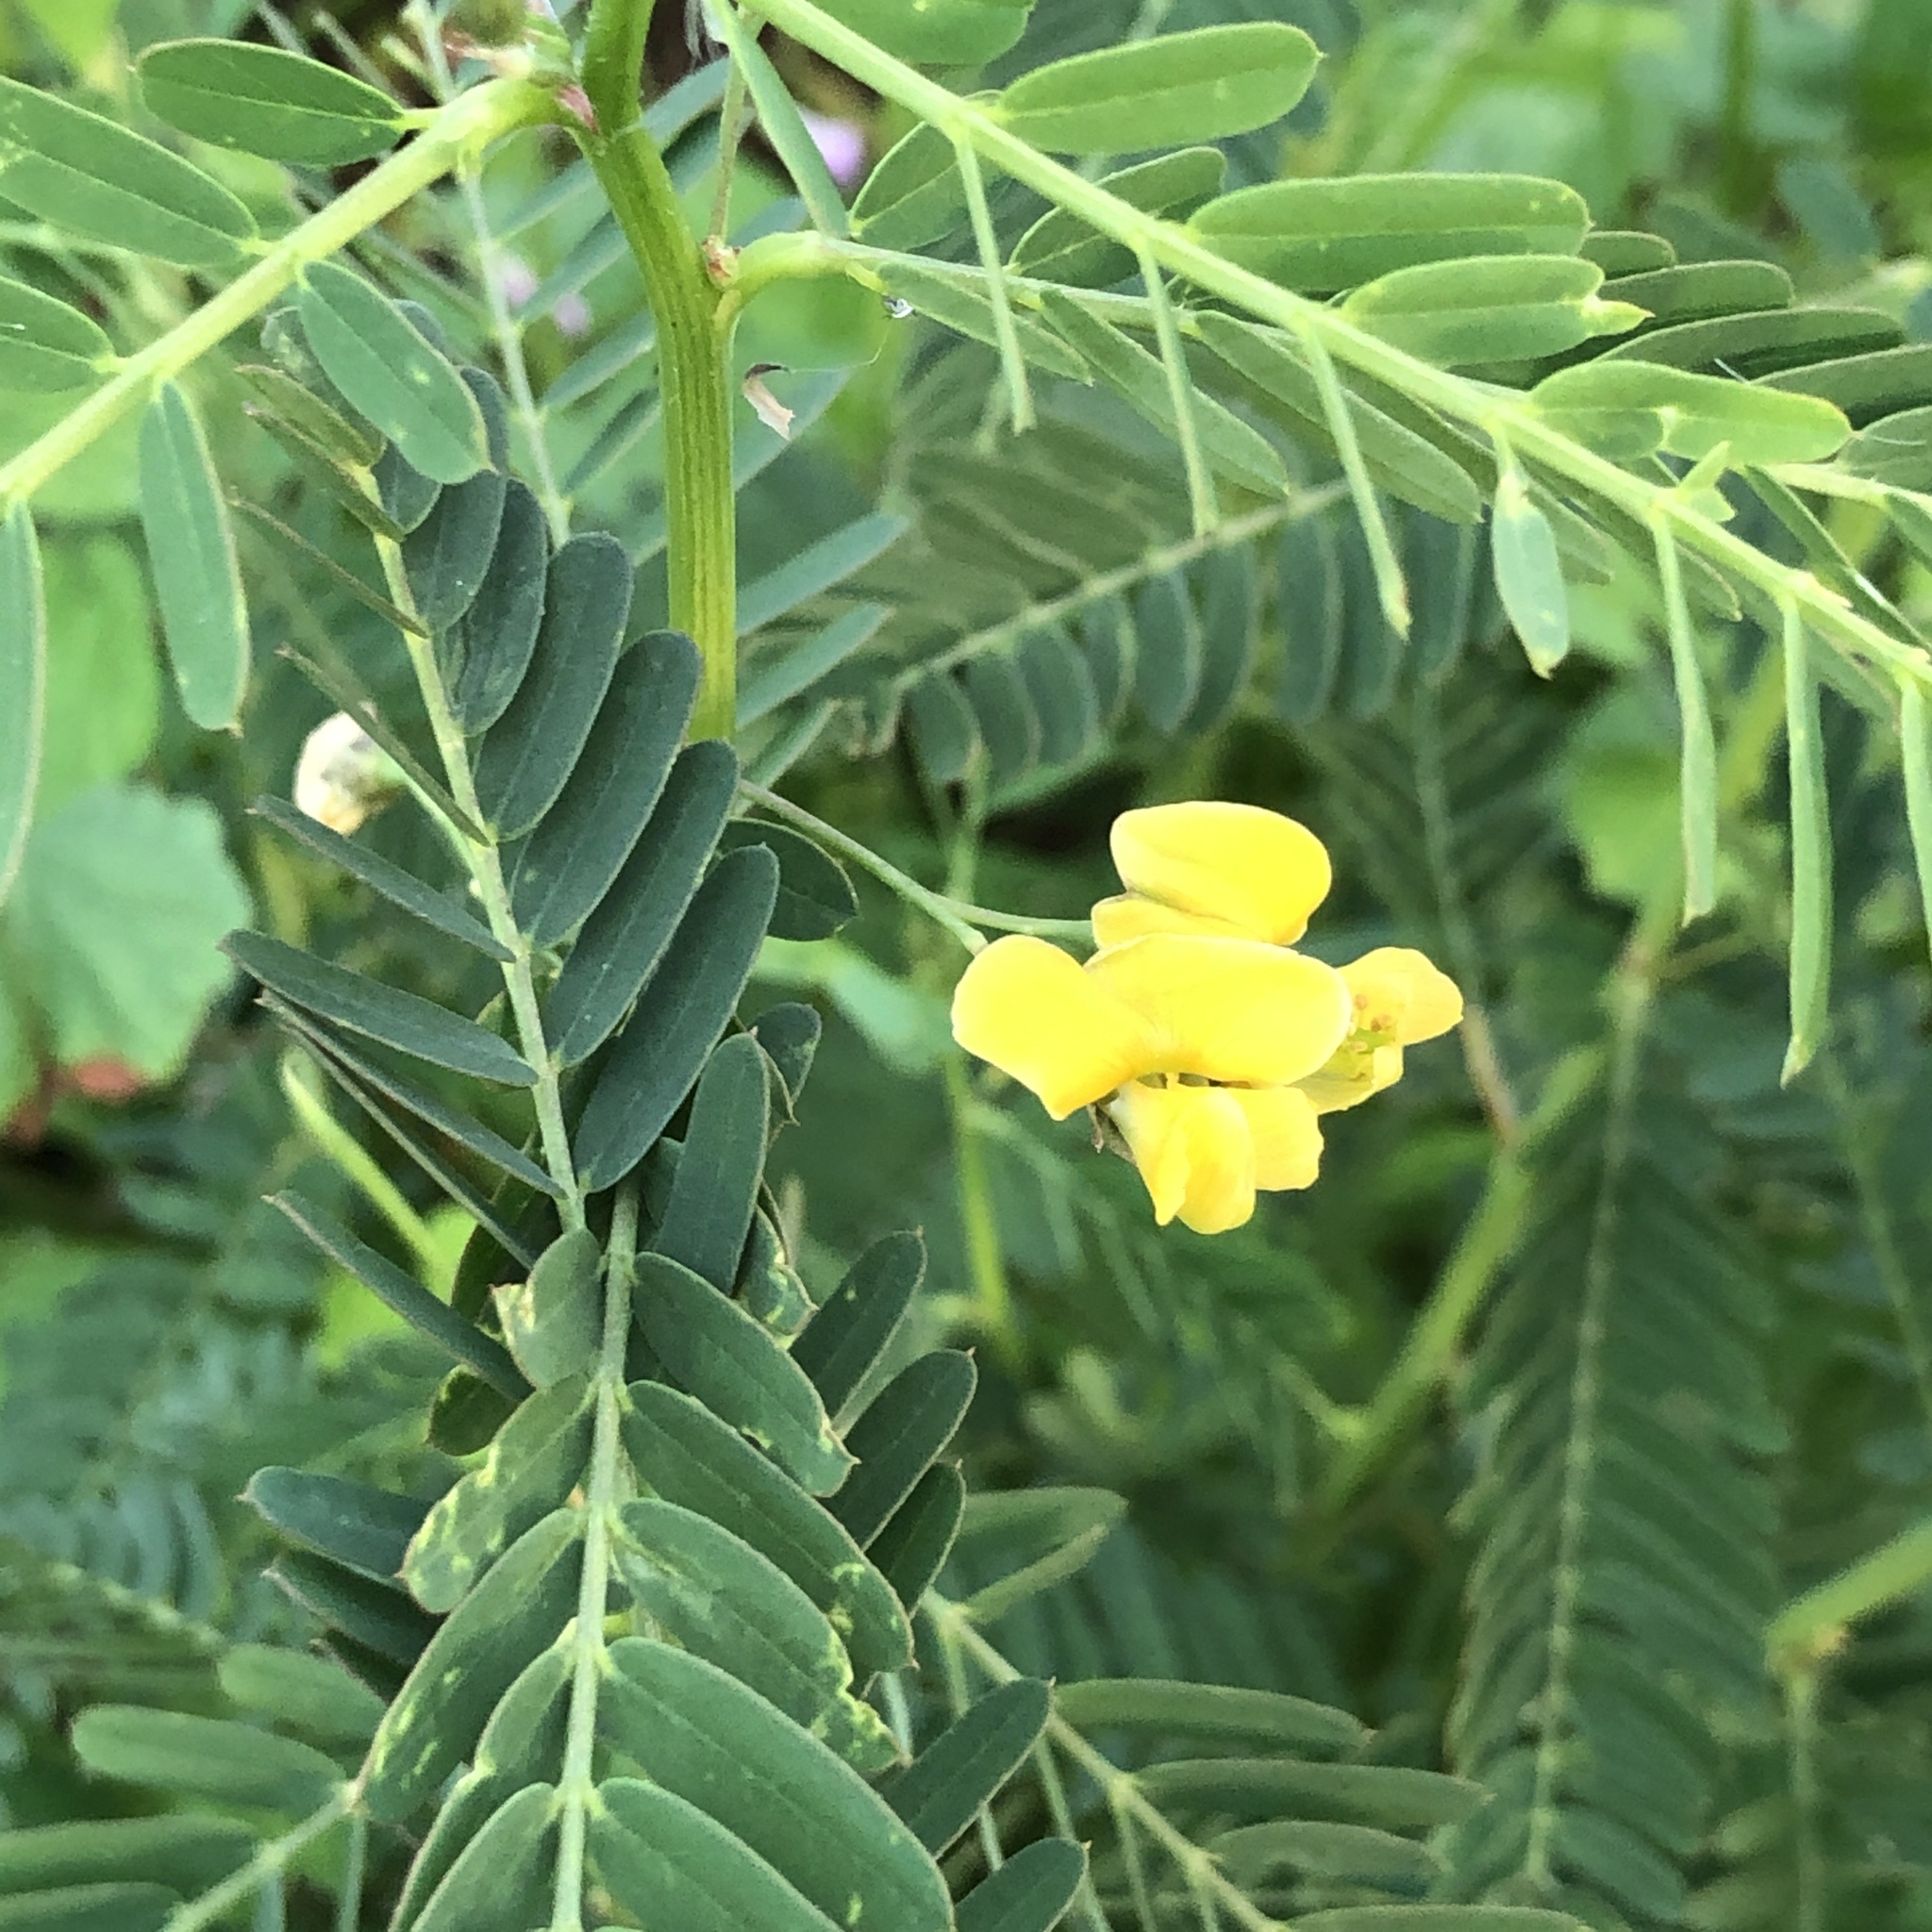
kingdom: Plantae
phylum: Tracheophyta
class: Magnoliopsida
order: Fabales
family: Fabaceae
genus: Sesbania
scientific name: Sesbania herbacea
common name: Bigpod sesbania
